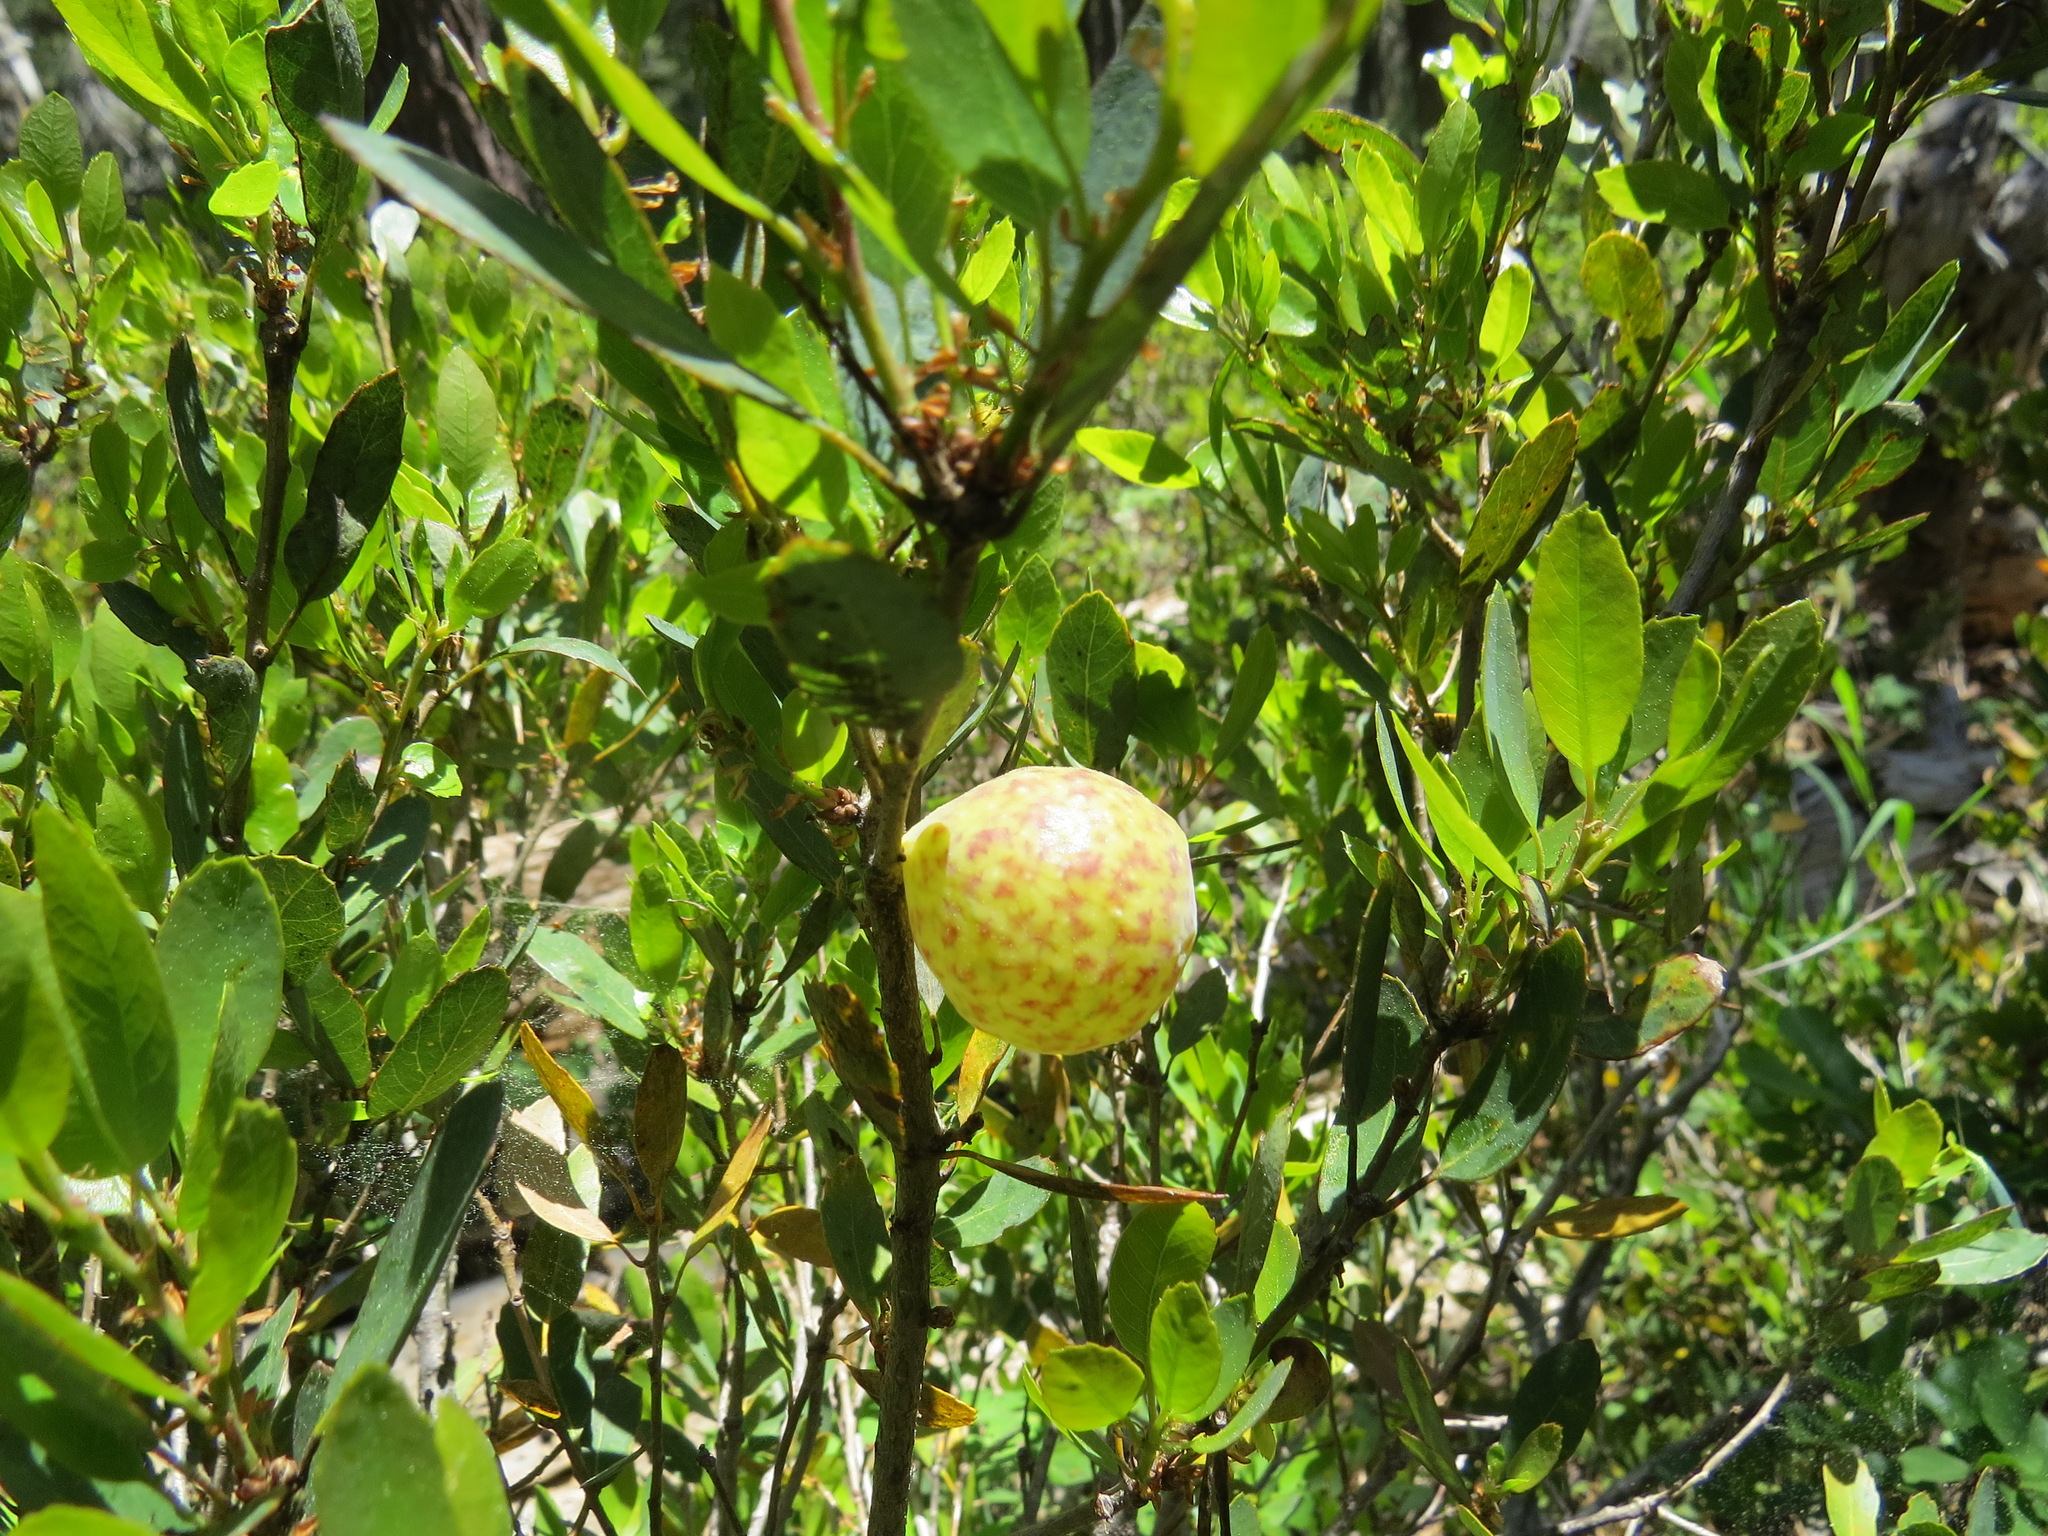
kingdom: Animalia
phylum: Arthropoda
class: Insecta
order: Hymenoptera
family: Cynipidae
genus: Andricus
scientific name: Andricus
